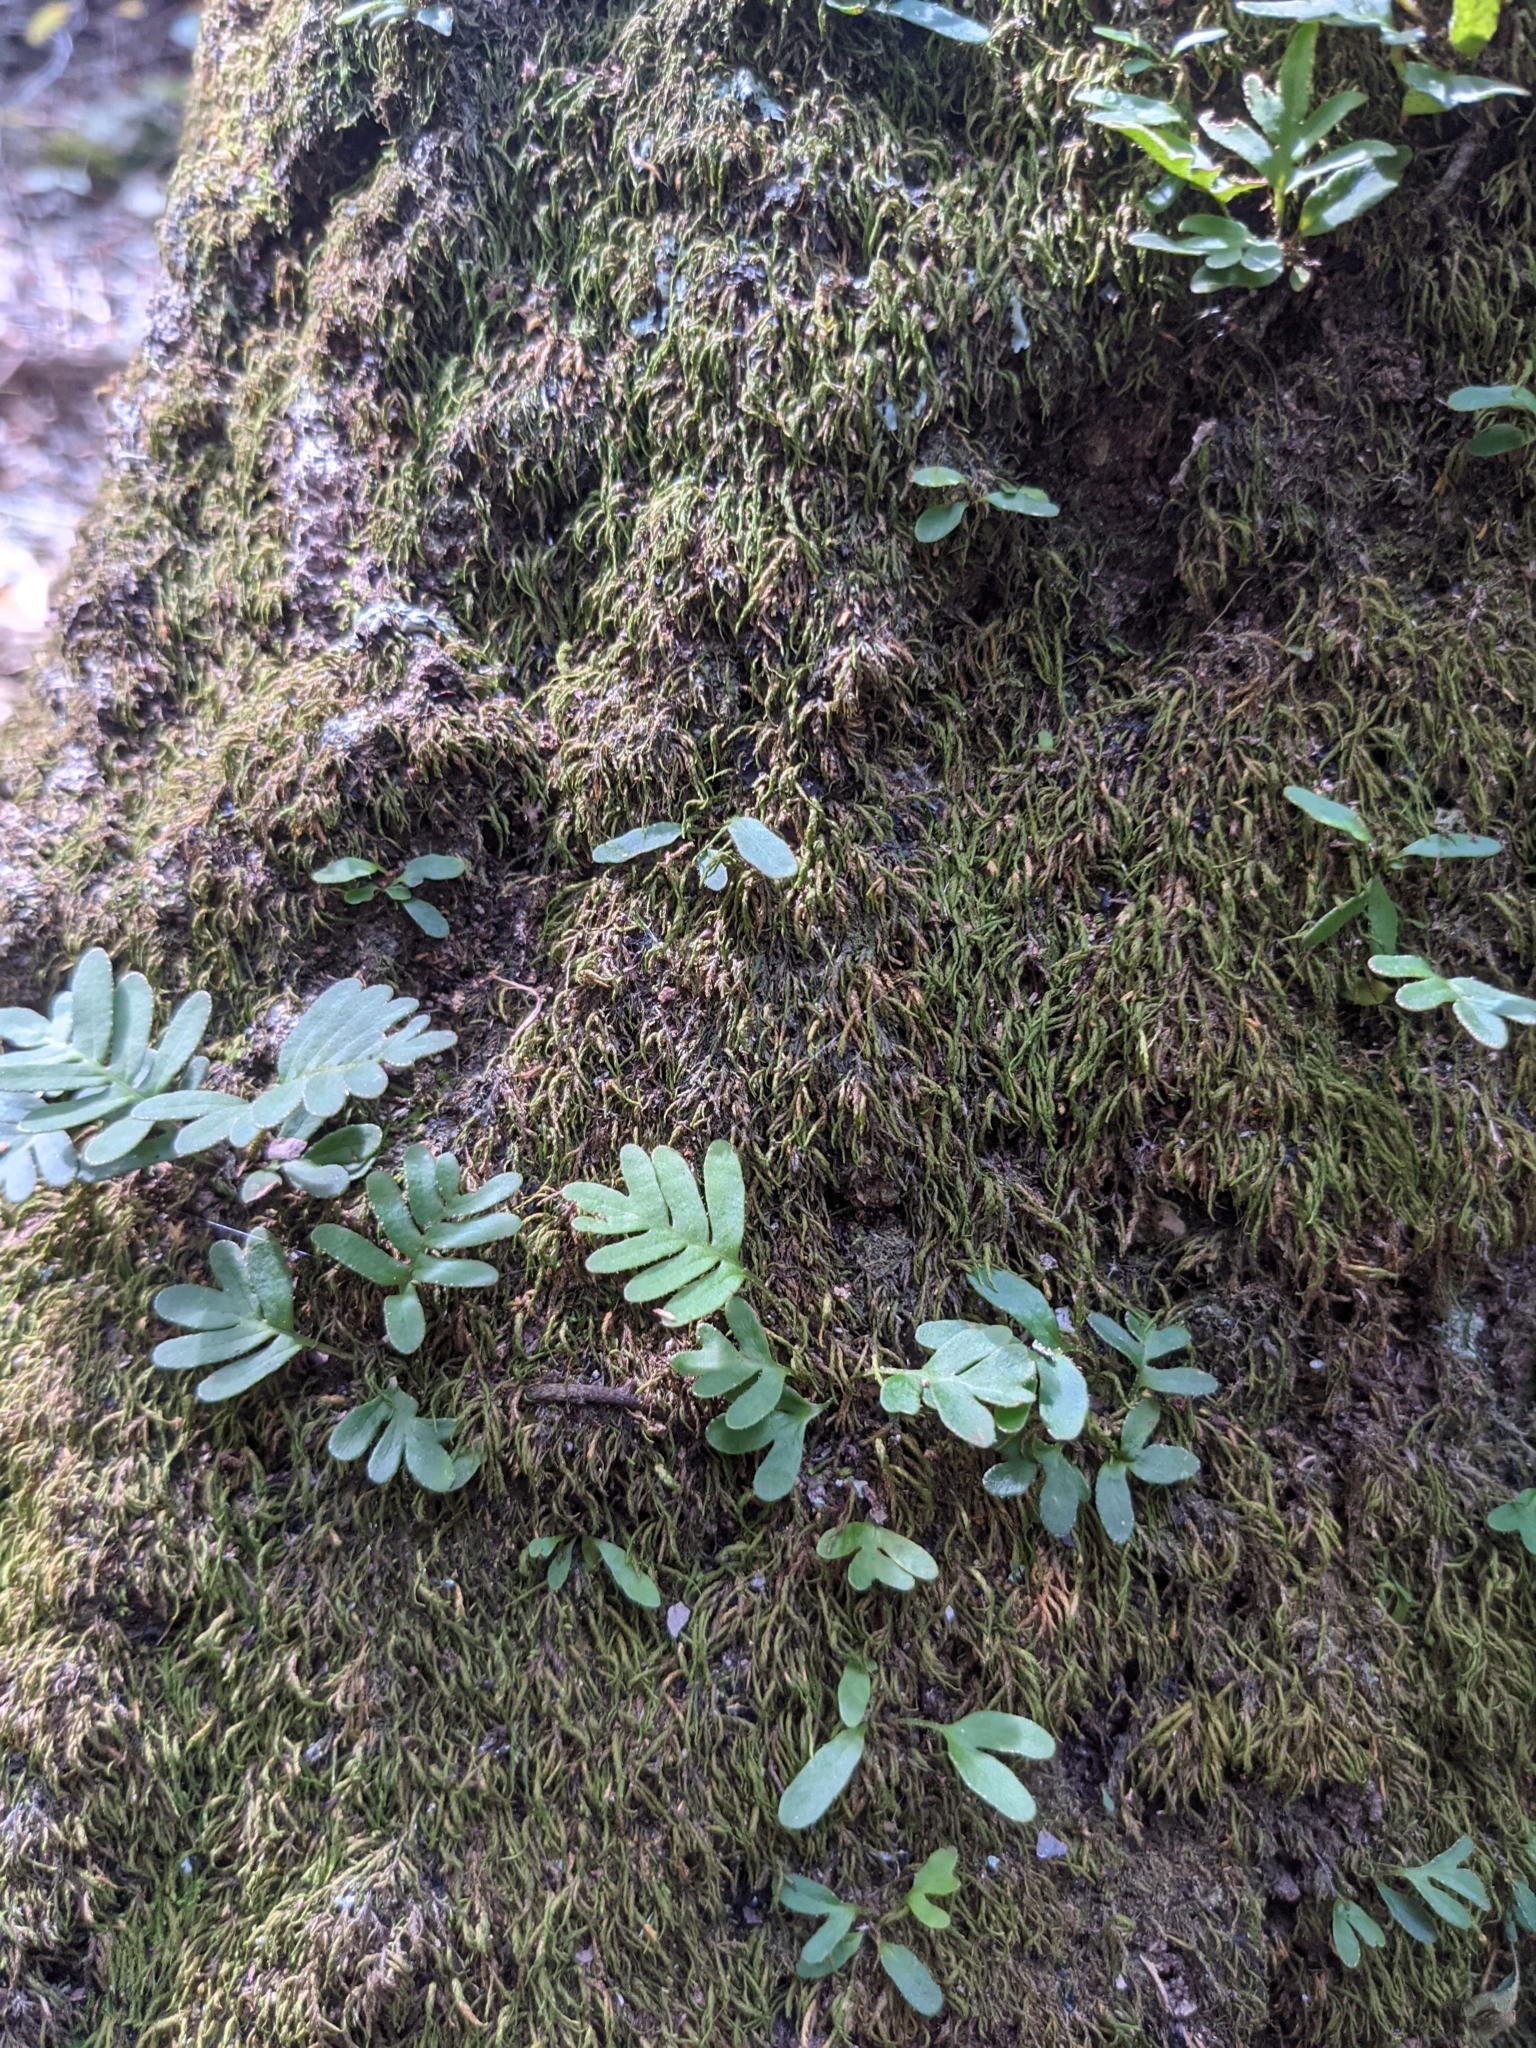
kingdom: Plantae
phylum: Tracheophyta
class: Polypodiopsida
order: Polypodiales
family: Polypodiaceae
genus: Pleopeltis
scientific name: Pleopeltis michauxiana
